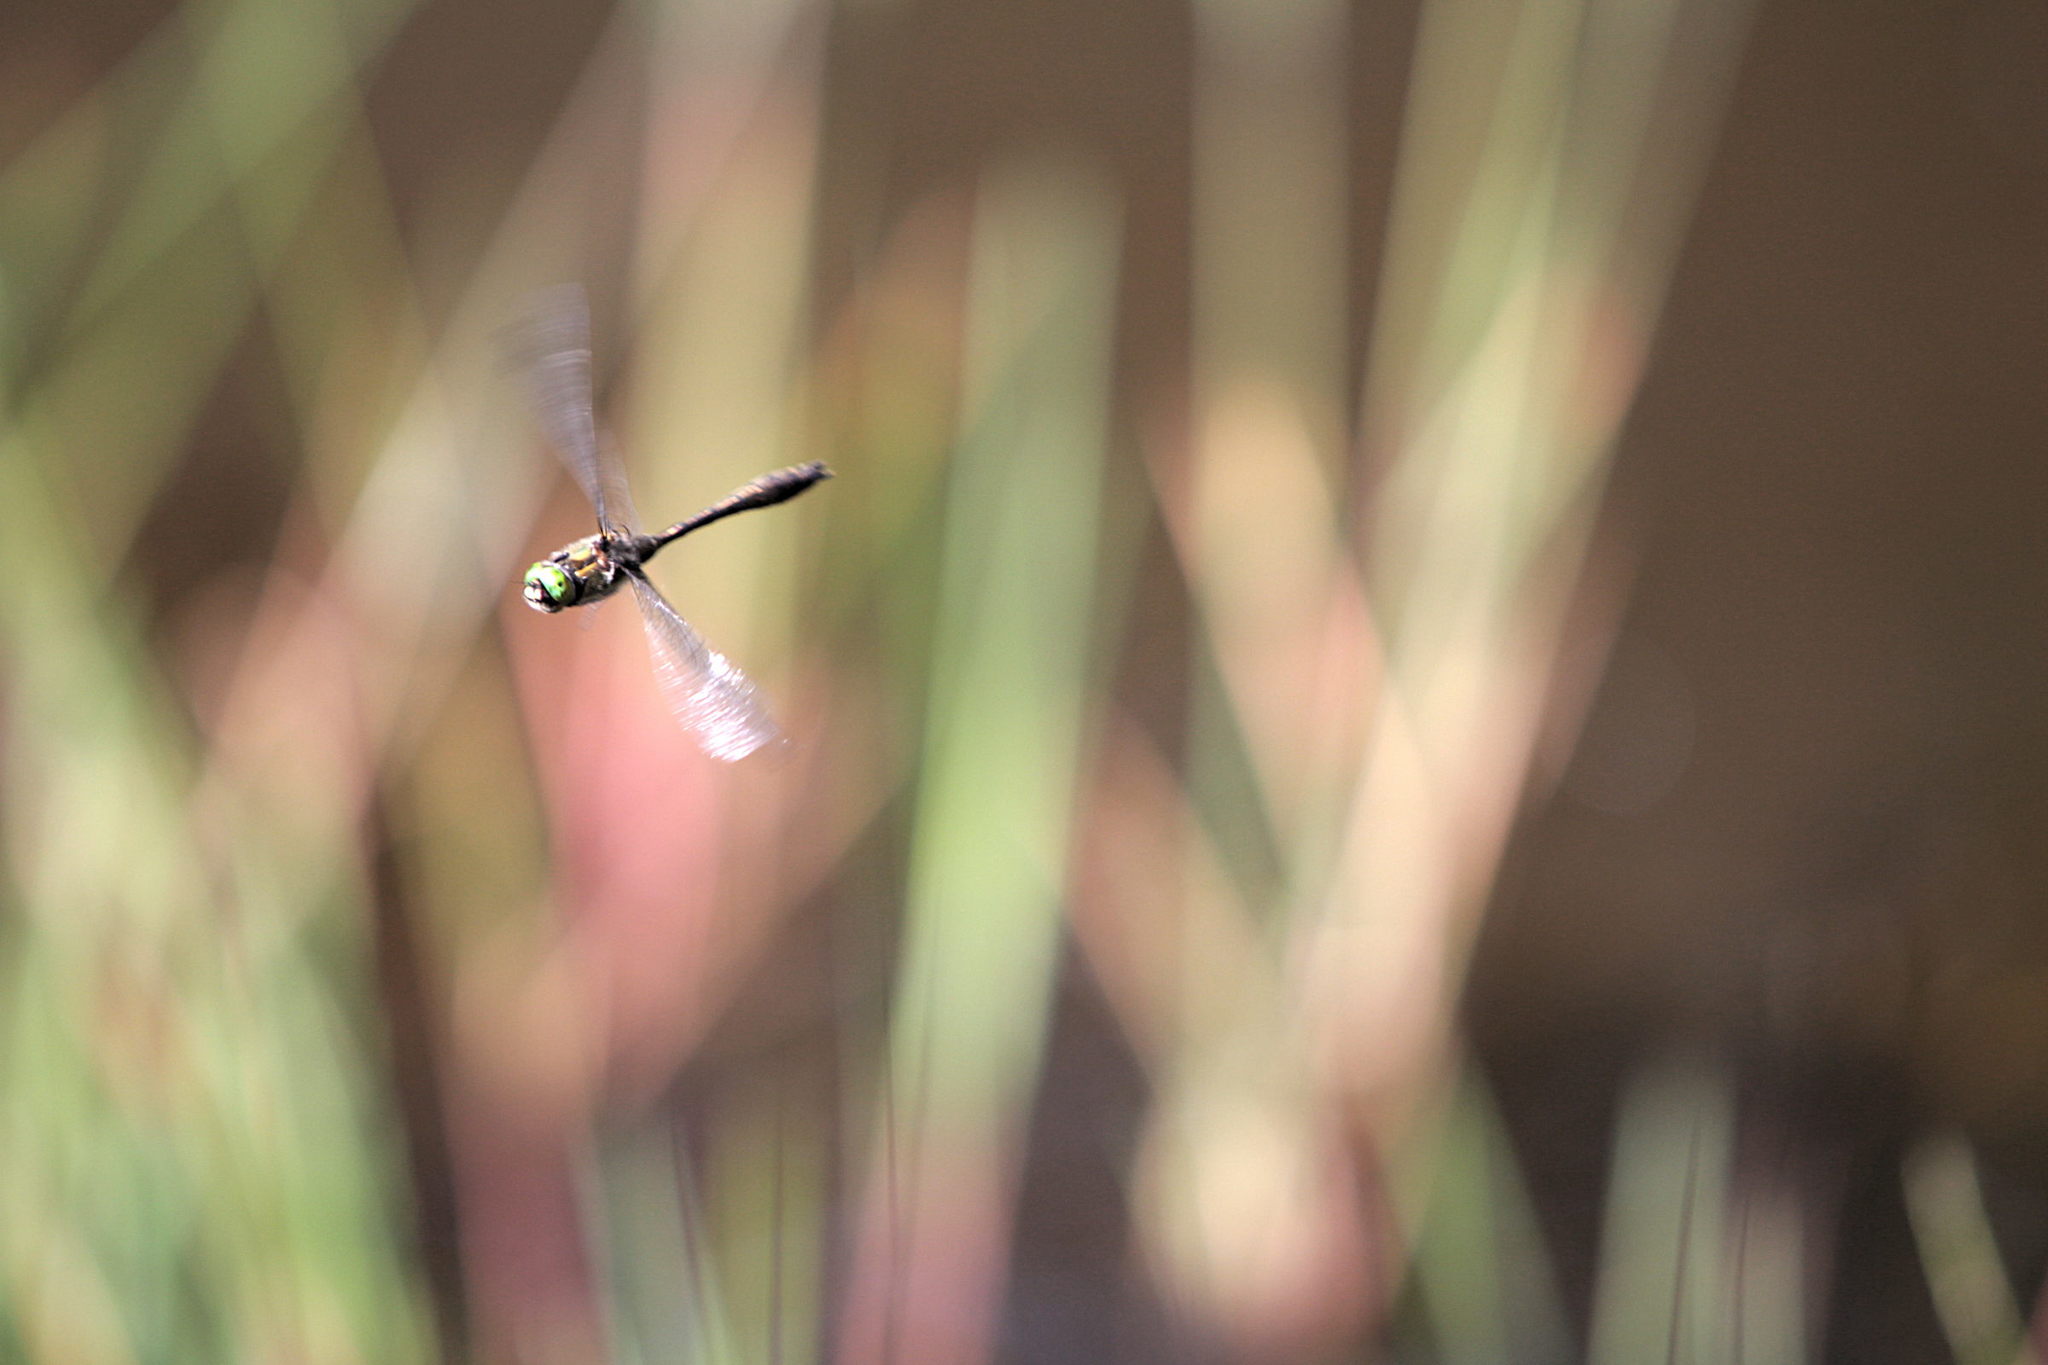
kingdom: Animalia
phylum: Arthropoda
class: Insecta
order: Odonata
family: Corduliidae
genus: Cordulia
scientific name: Cordulia aenea
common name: Downy emerald
